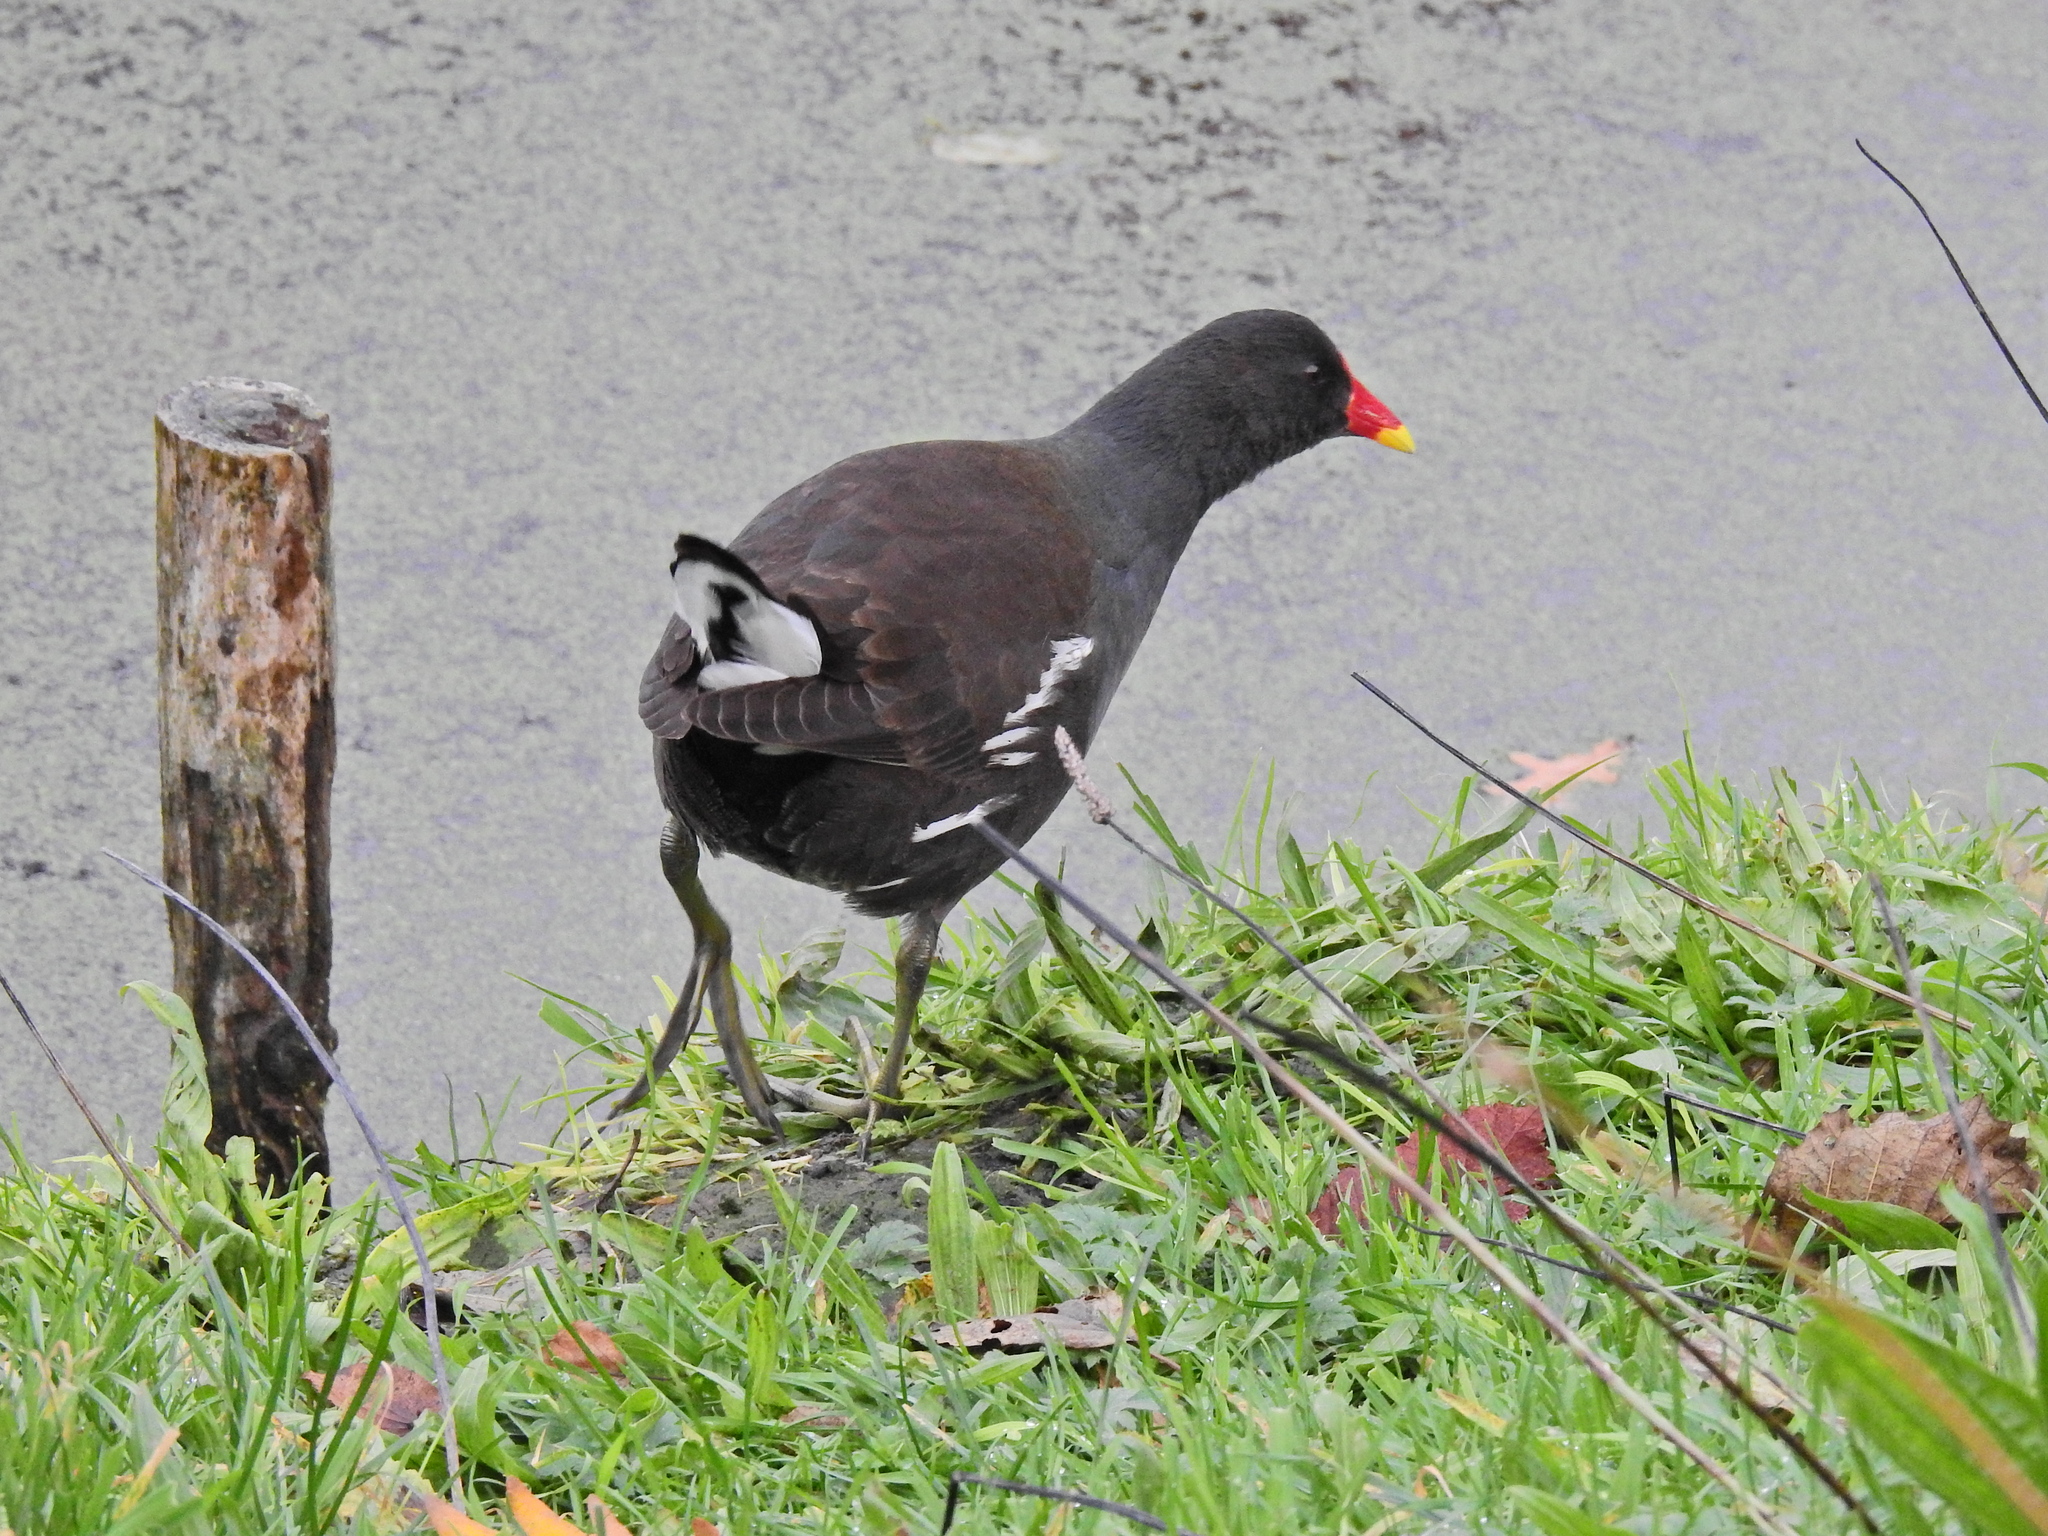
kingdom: Animalia
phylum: Chordata
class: Aves
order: Gruiformes
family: Rallidae
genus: Gallinula
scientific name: Gallinula chloropus
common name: Common moorhen
